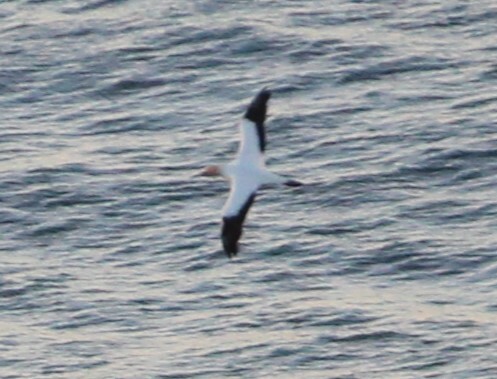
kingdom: Animalia
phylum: Chordata
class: Aves
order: Suliformes
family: Sulidae
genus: Morus
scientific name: Morus serrator
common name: Australasian gannet
